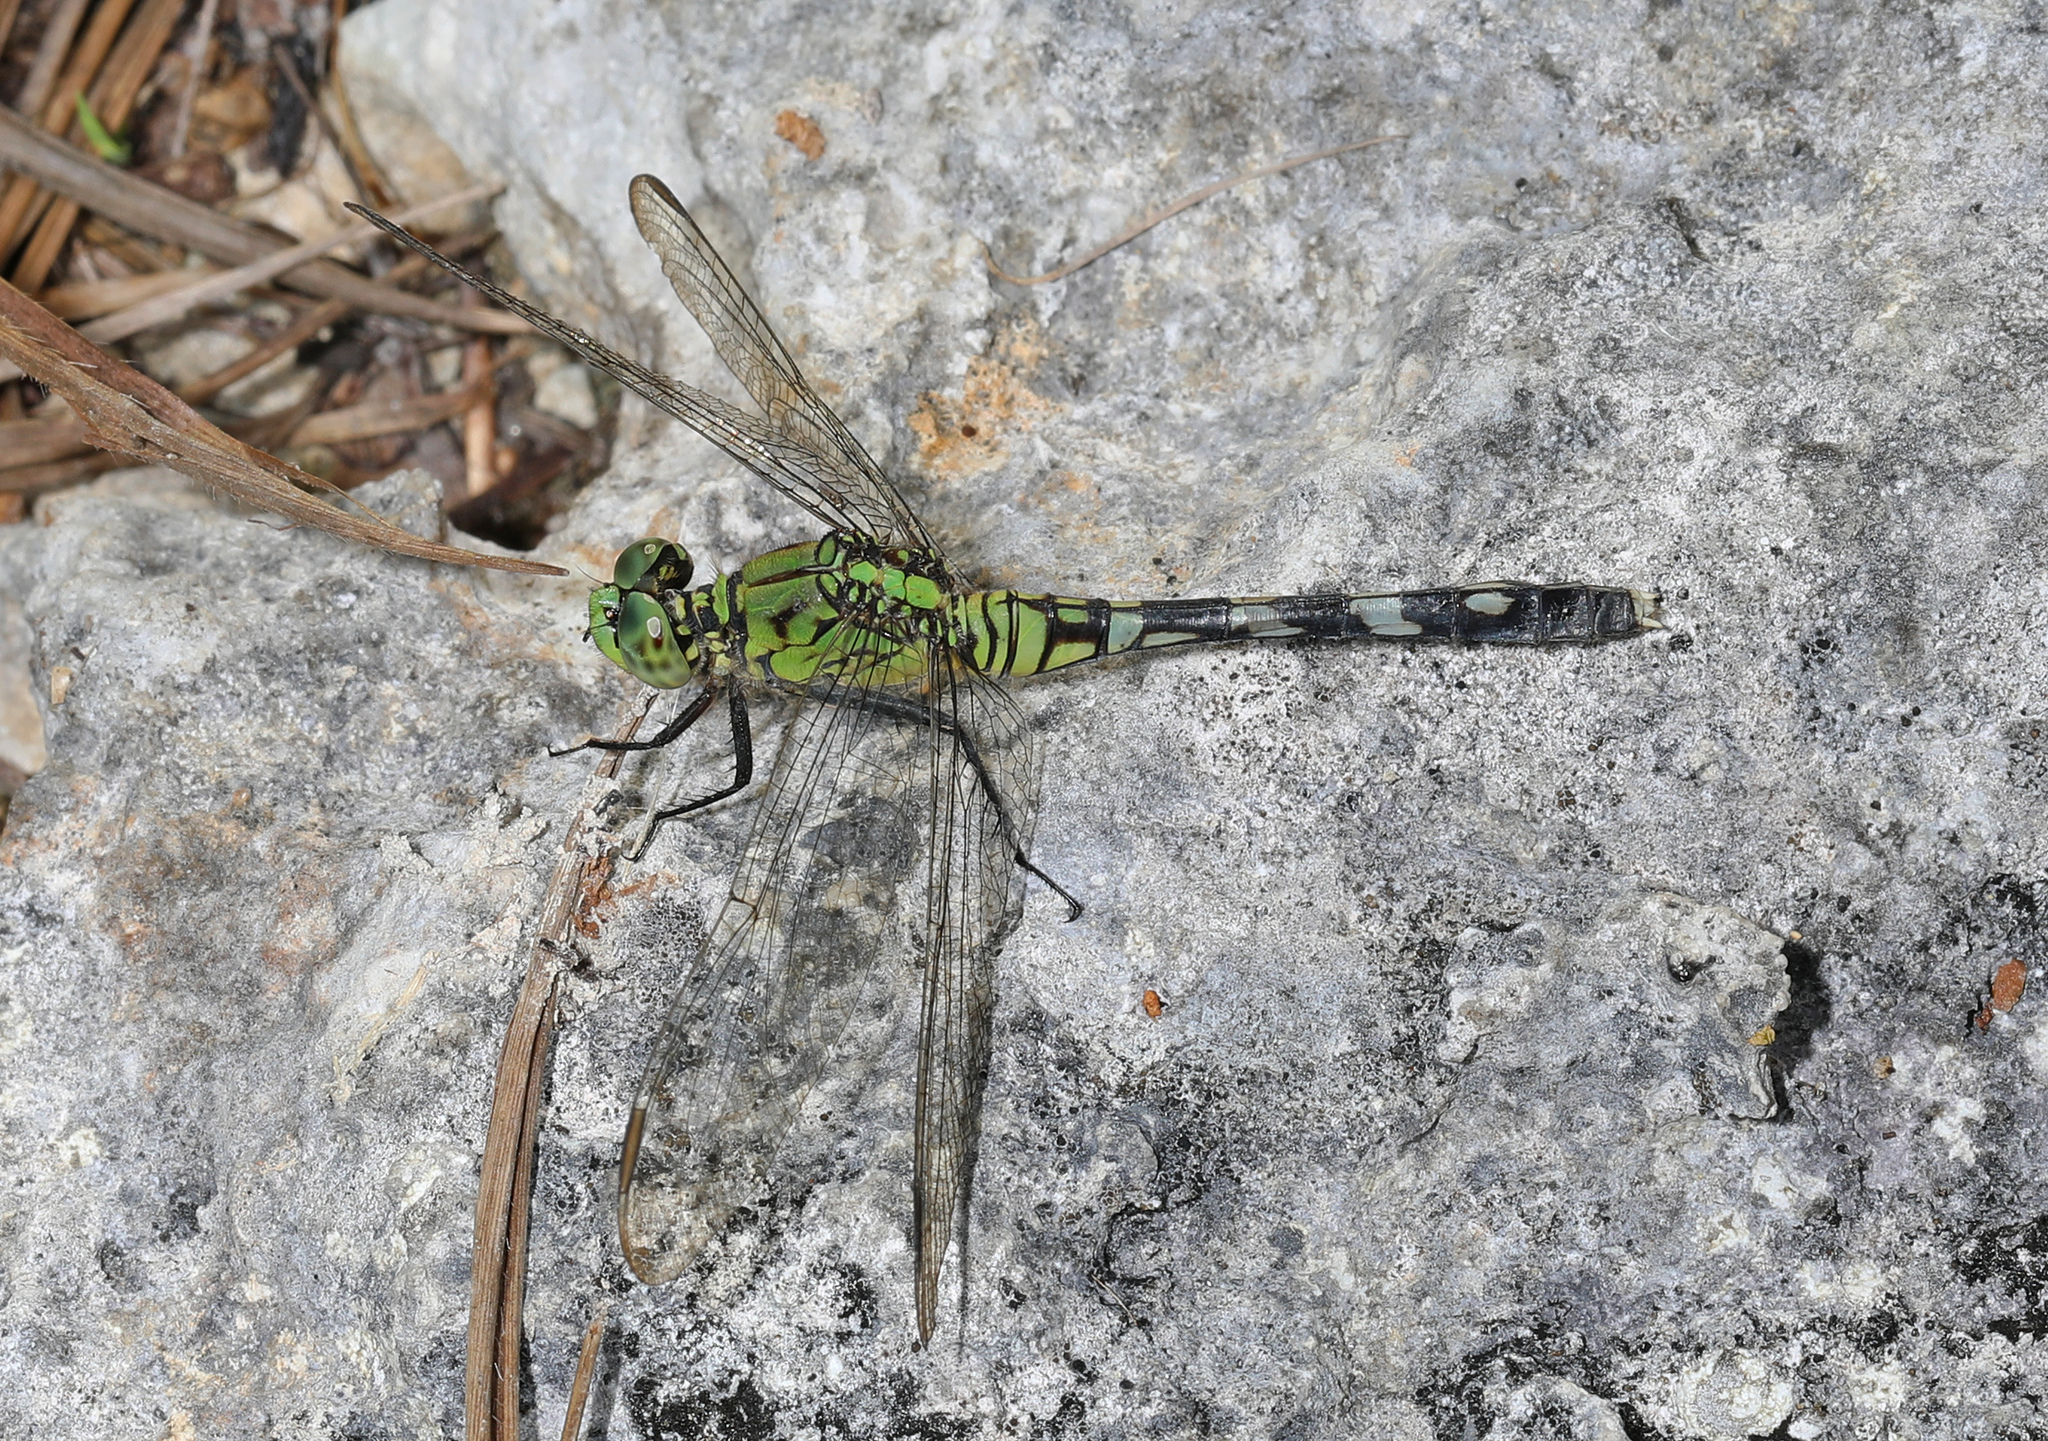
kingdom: Animalia
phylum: Arthropoda
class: Insecta
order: Odonata
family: Libellulidae
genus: Erythemis
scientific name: Erythemis simplicicollis
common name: Eastern pondhawk
